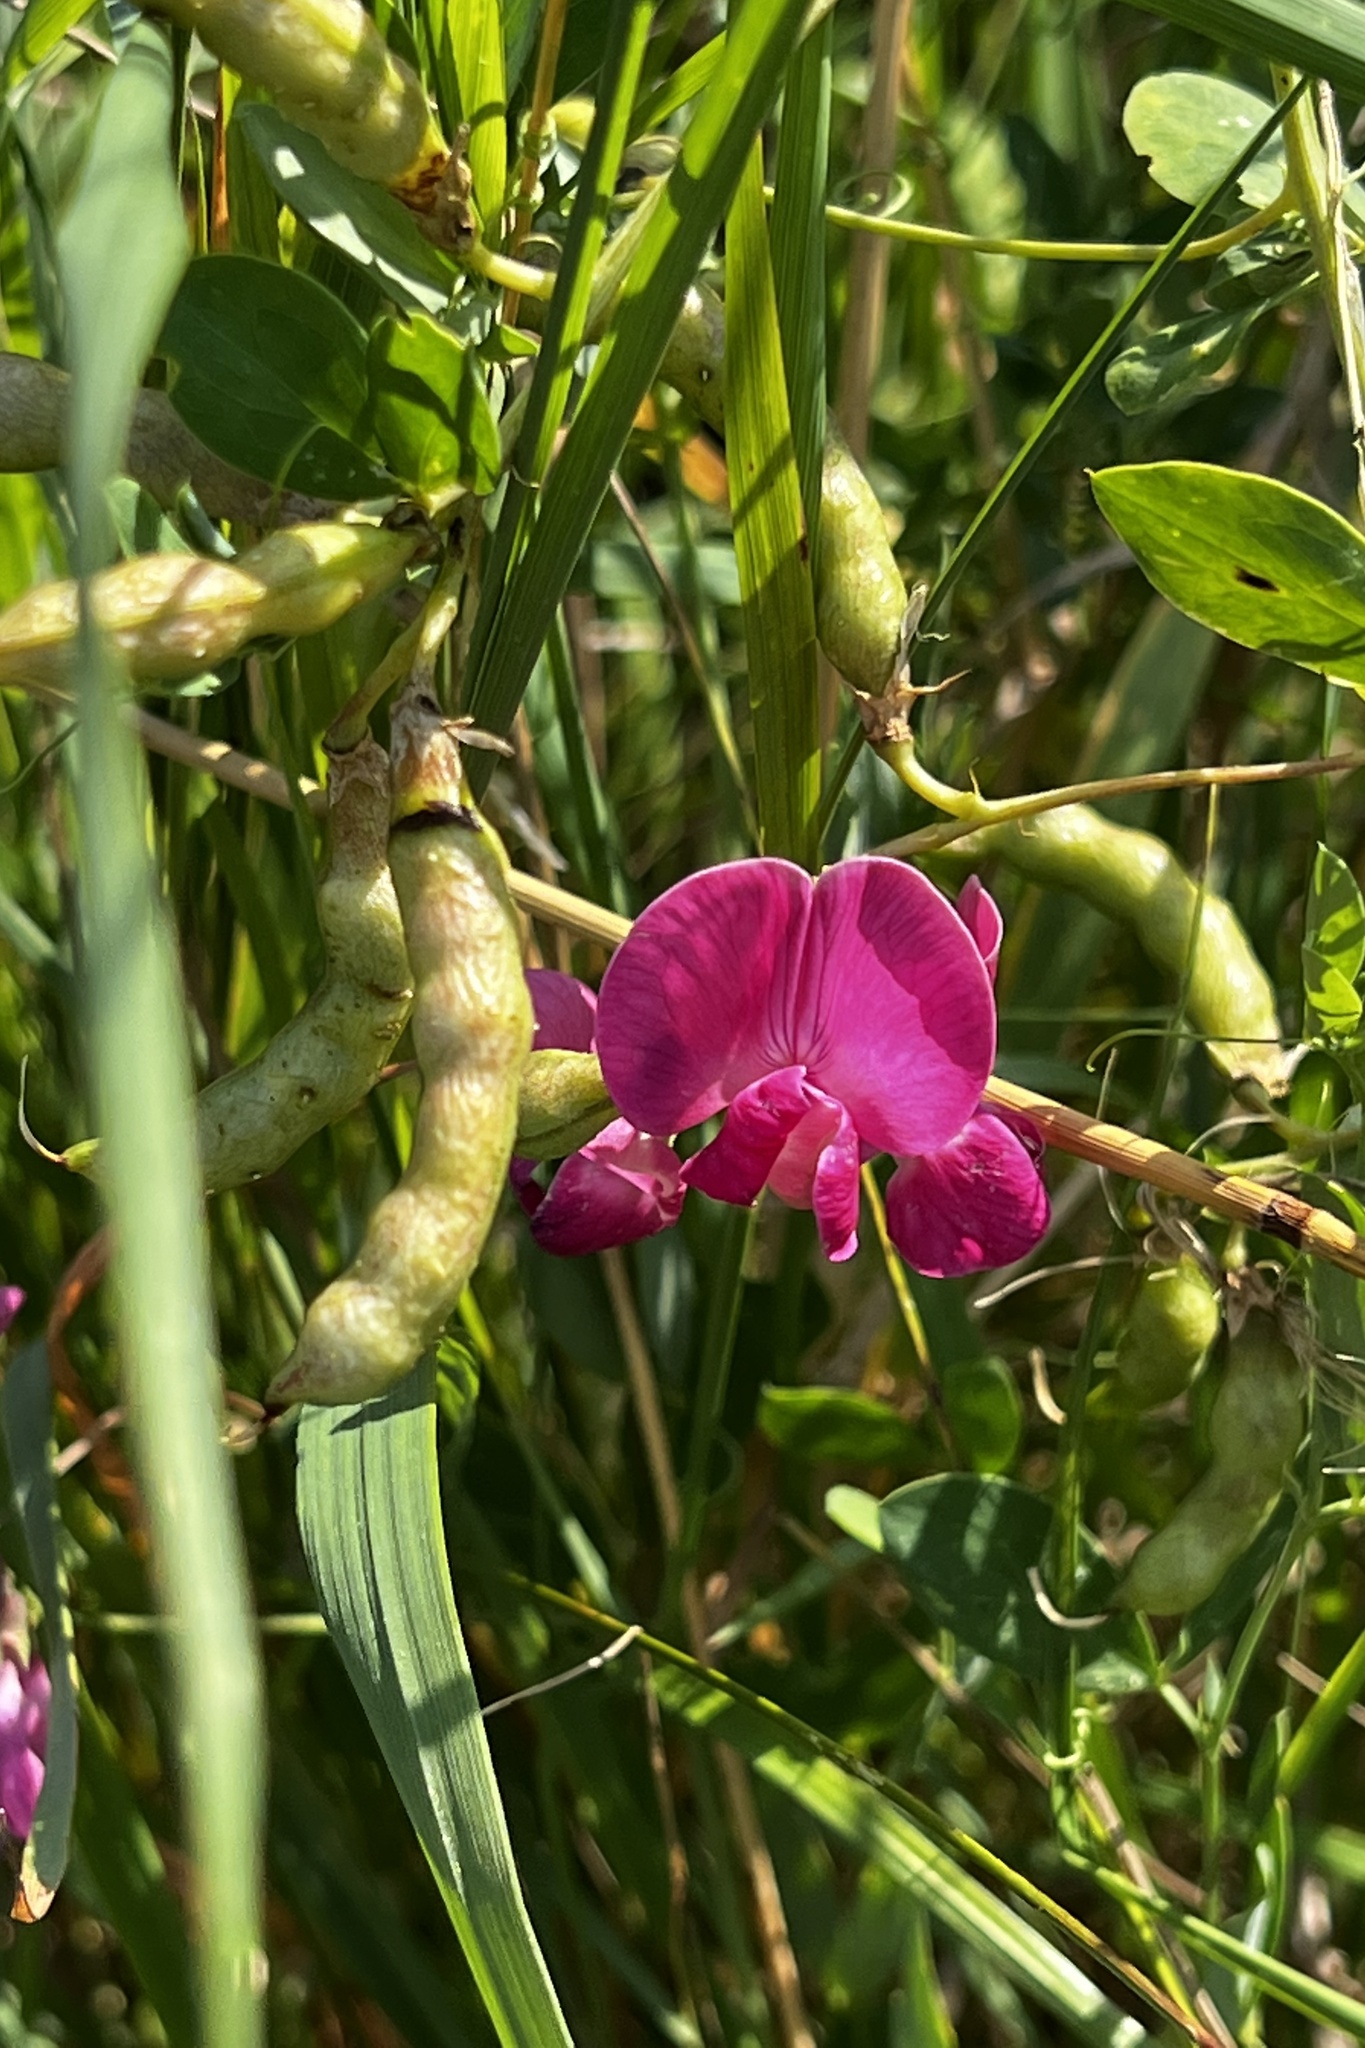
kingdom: Plantae
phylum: Tracheophyta
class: Magnoliopsida
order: Fabales
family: Fabaceae
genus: Lathyrus
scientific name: Lathyrus tuberosus
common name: Tuberous pea
